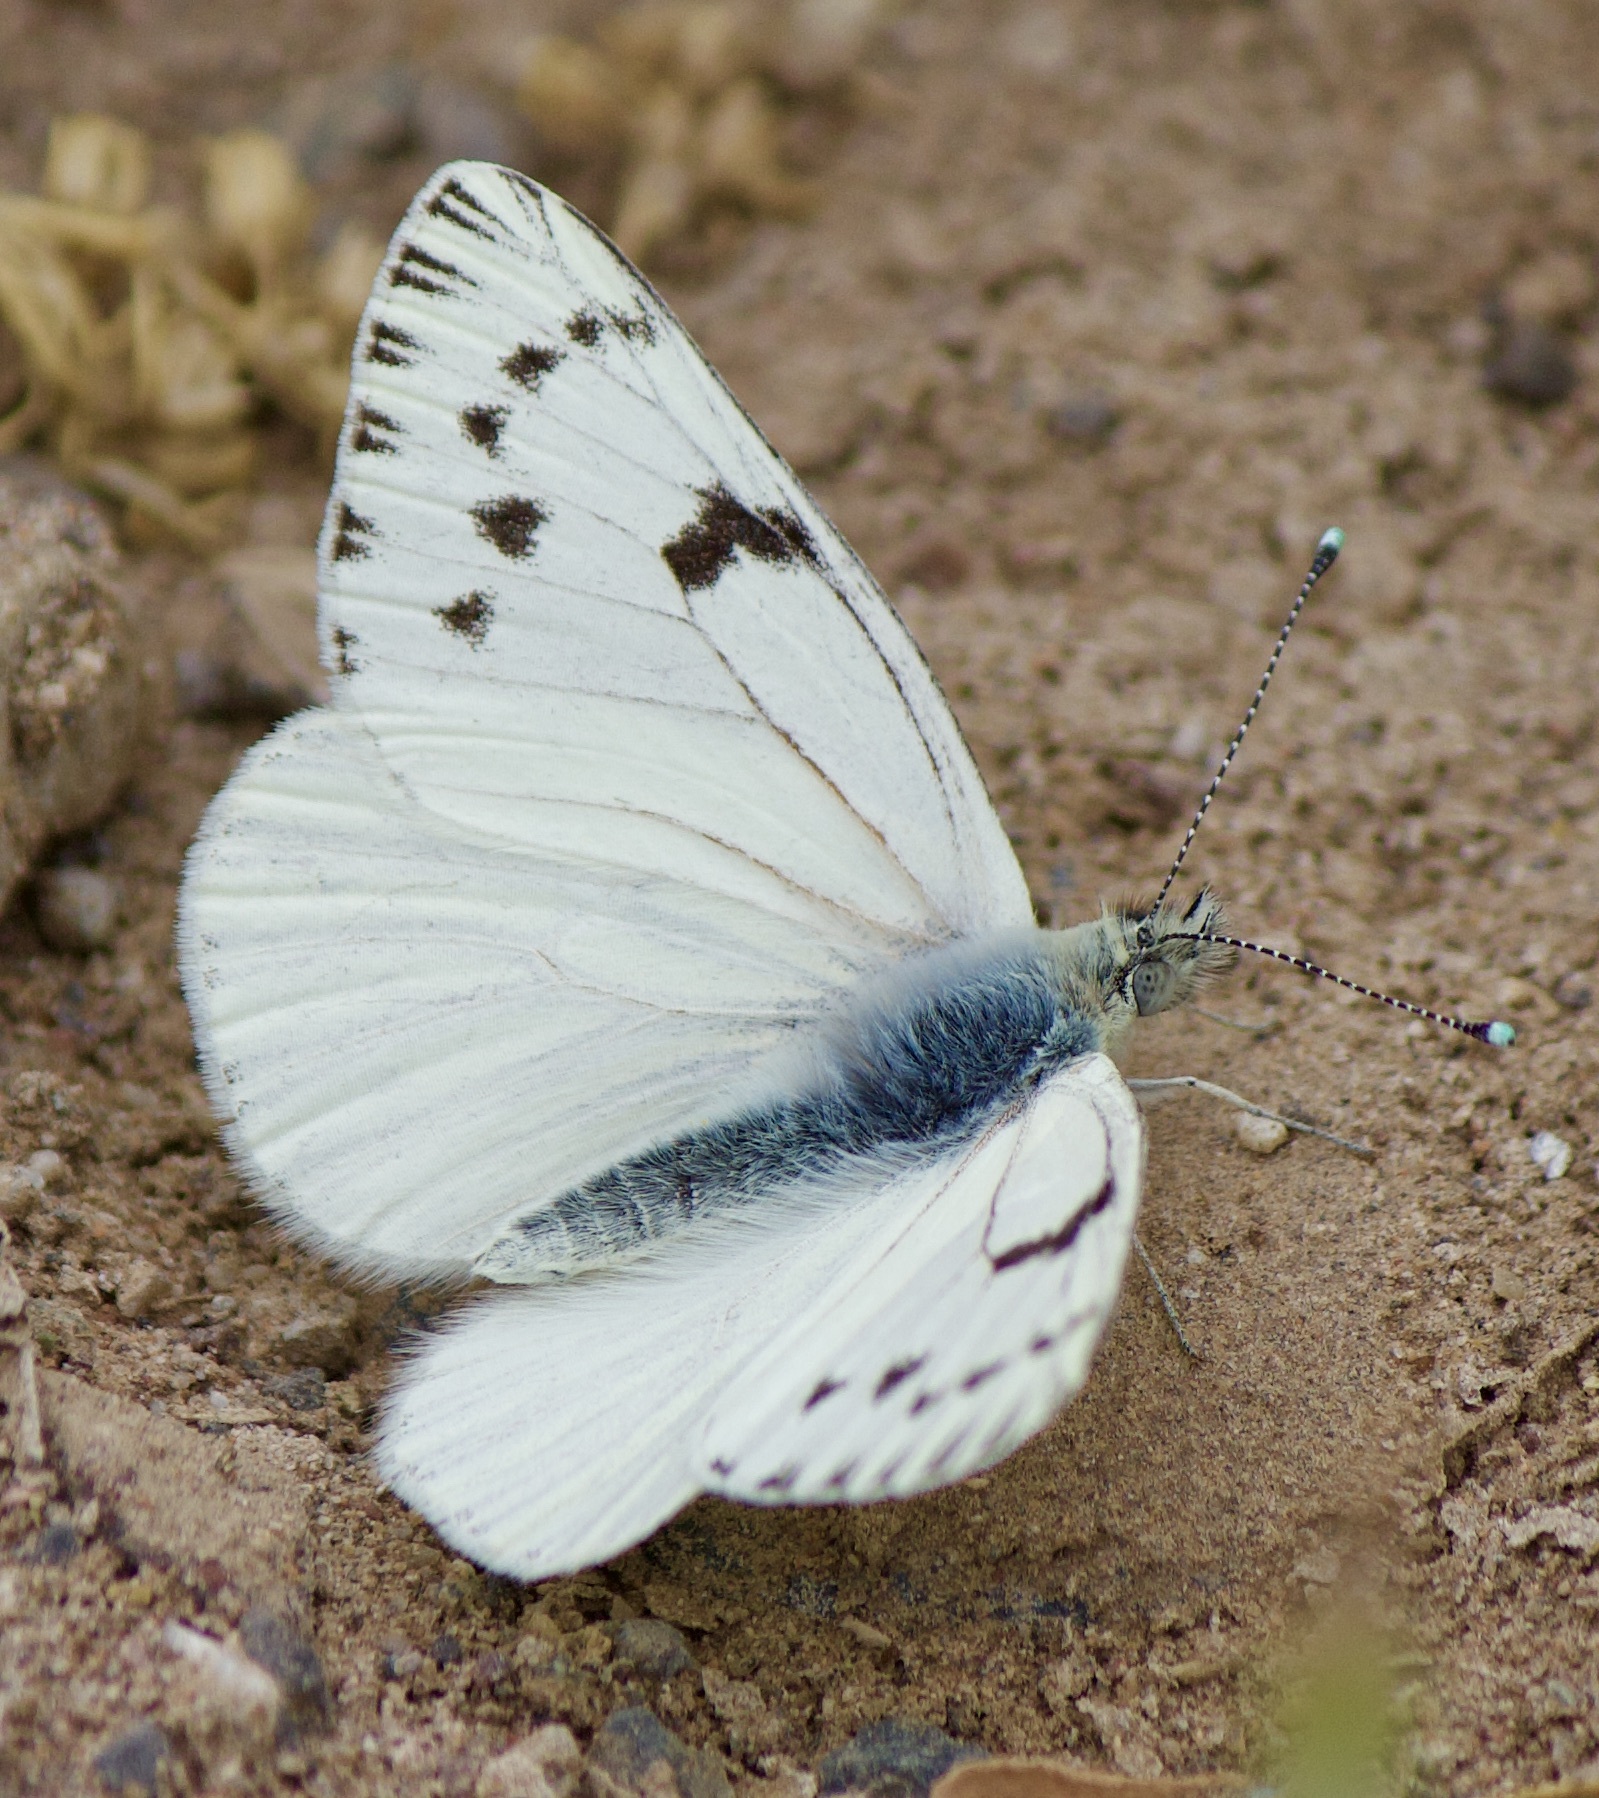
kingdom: Animalia
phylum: Arthropoda
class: Insecta
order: Lepidoptera
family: Pieridae
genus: Tatochila
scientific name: Tatochila mercedis
